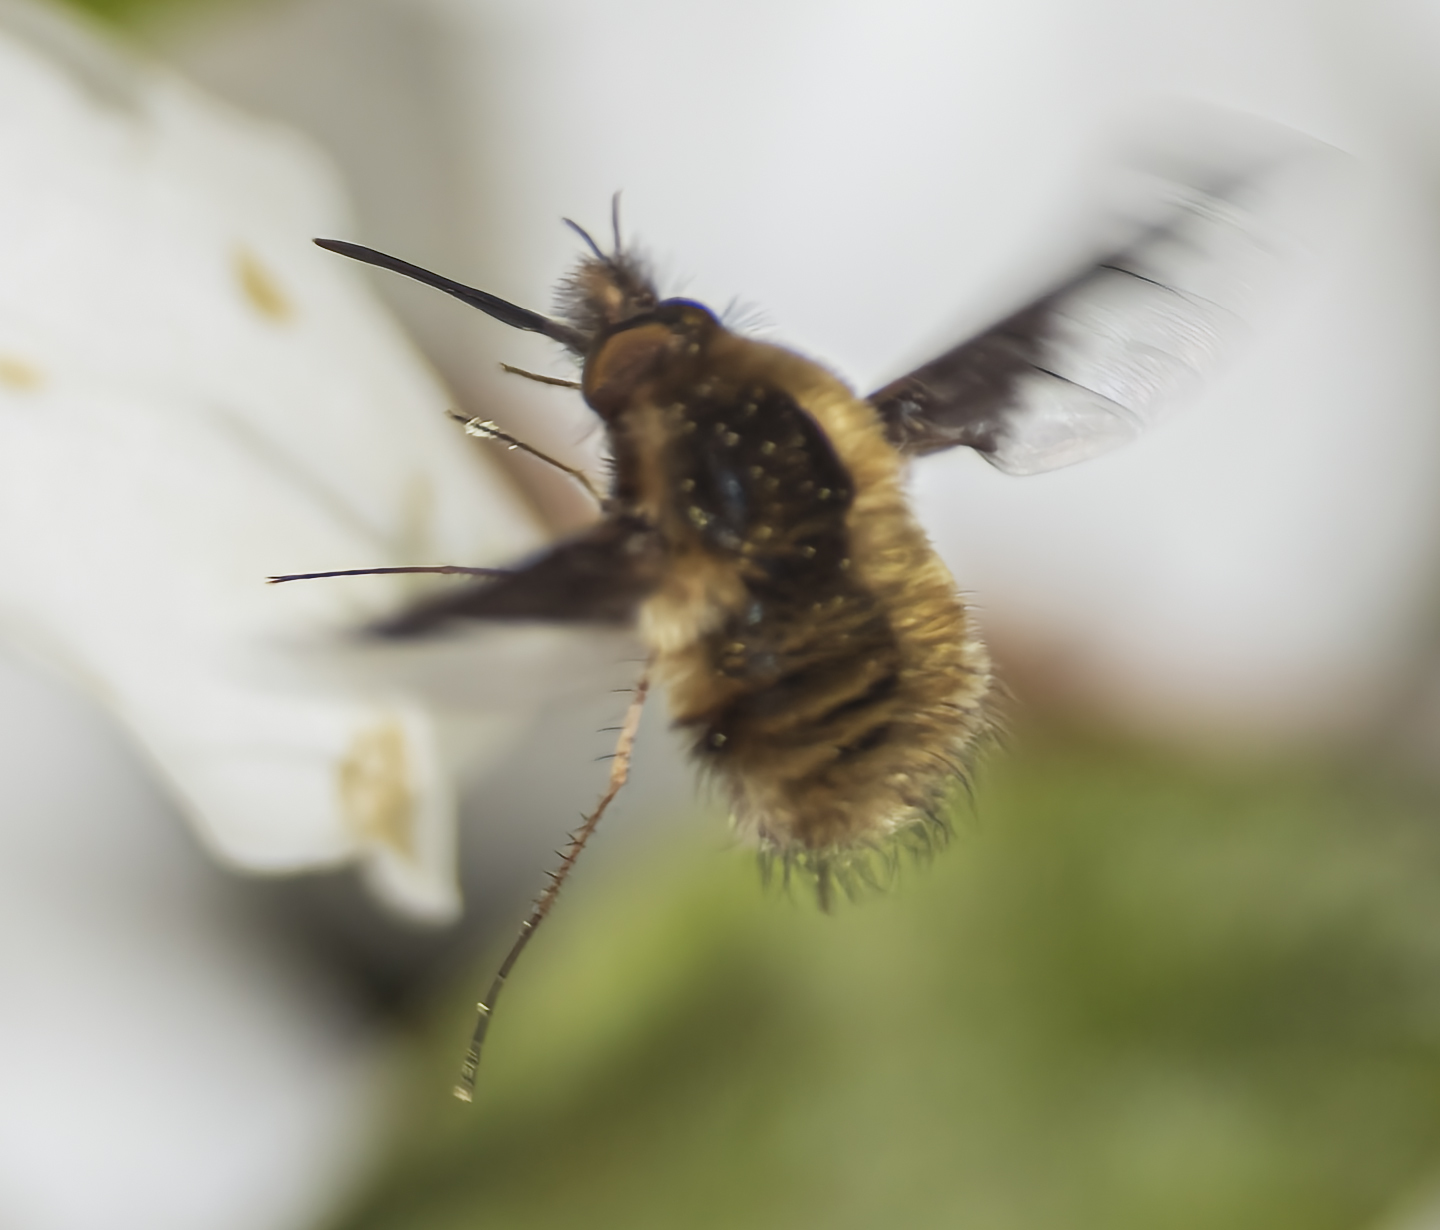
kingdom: Animalia
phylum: Arthropoda
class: Insecta
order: Diptera
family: Bombyliidae
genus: Bombylius
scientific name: Bombylius major
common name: Bee fly
